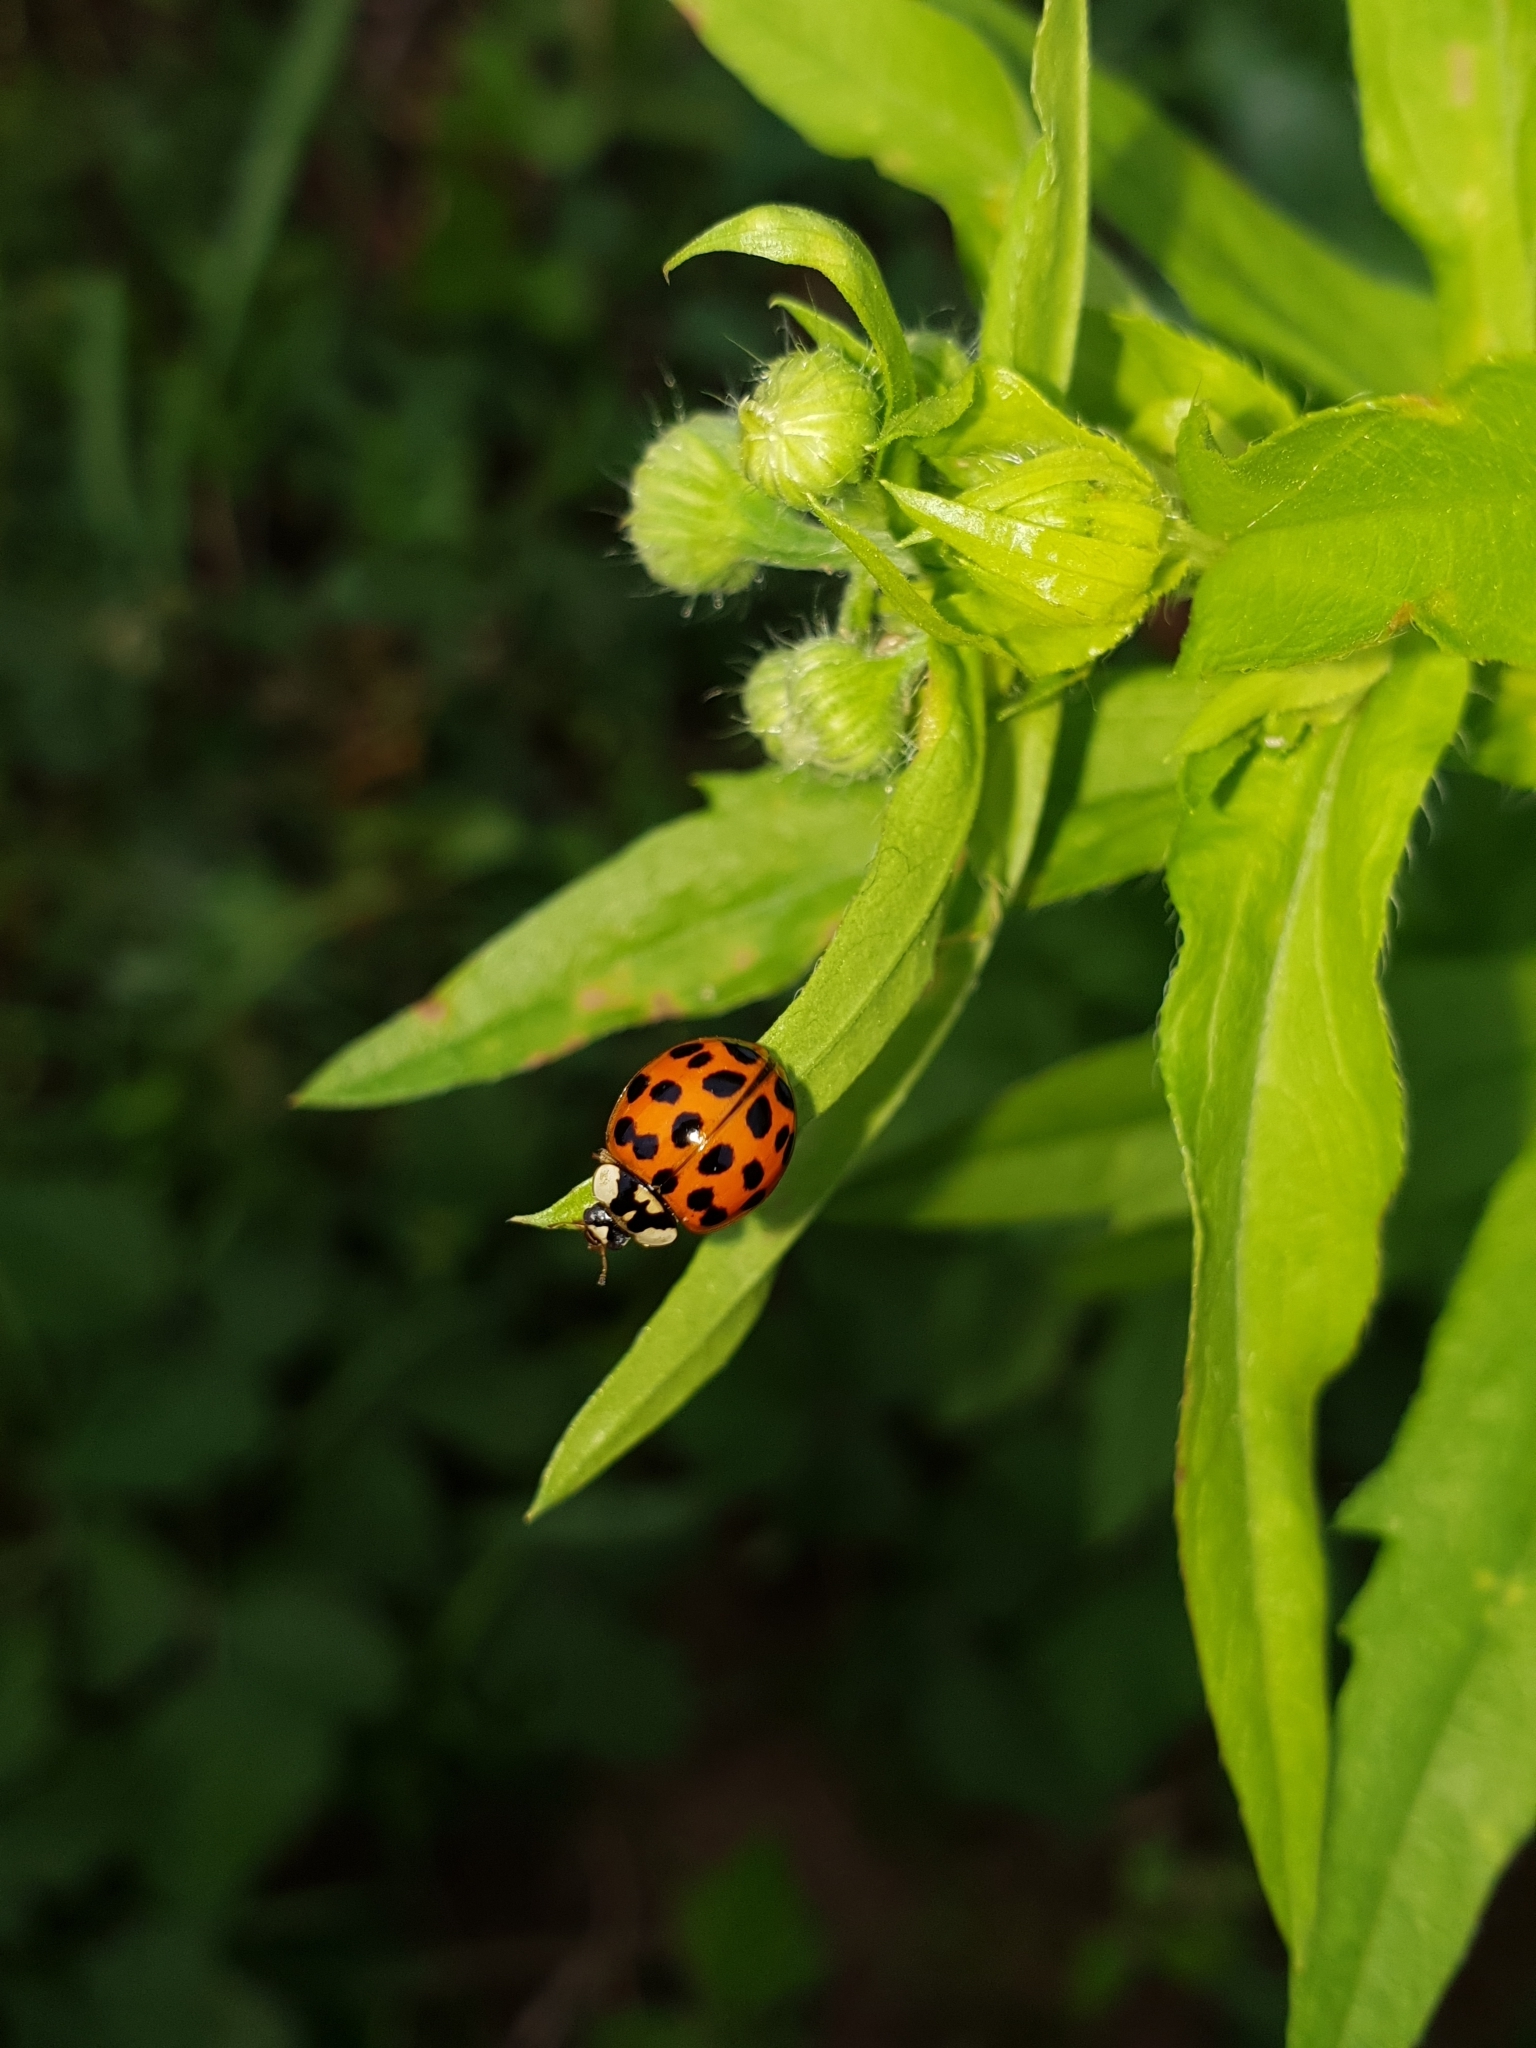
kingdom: Animalia
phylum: Arthropoda
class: Insecta
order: Coleoptera
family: Coccinellidae
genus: Harmonia
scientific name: Harmonia axyridis
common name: Harlequin ladybird
